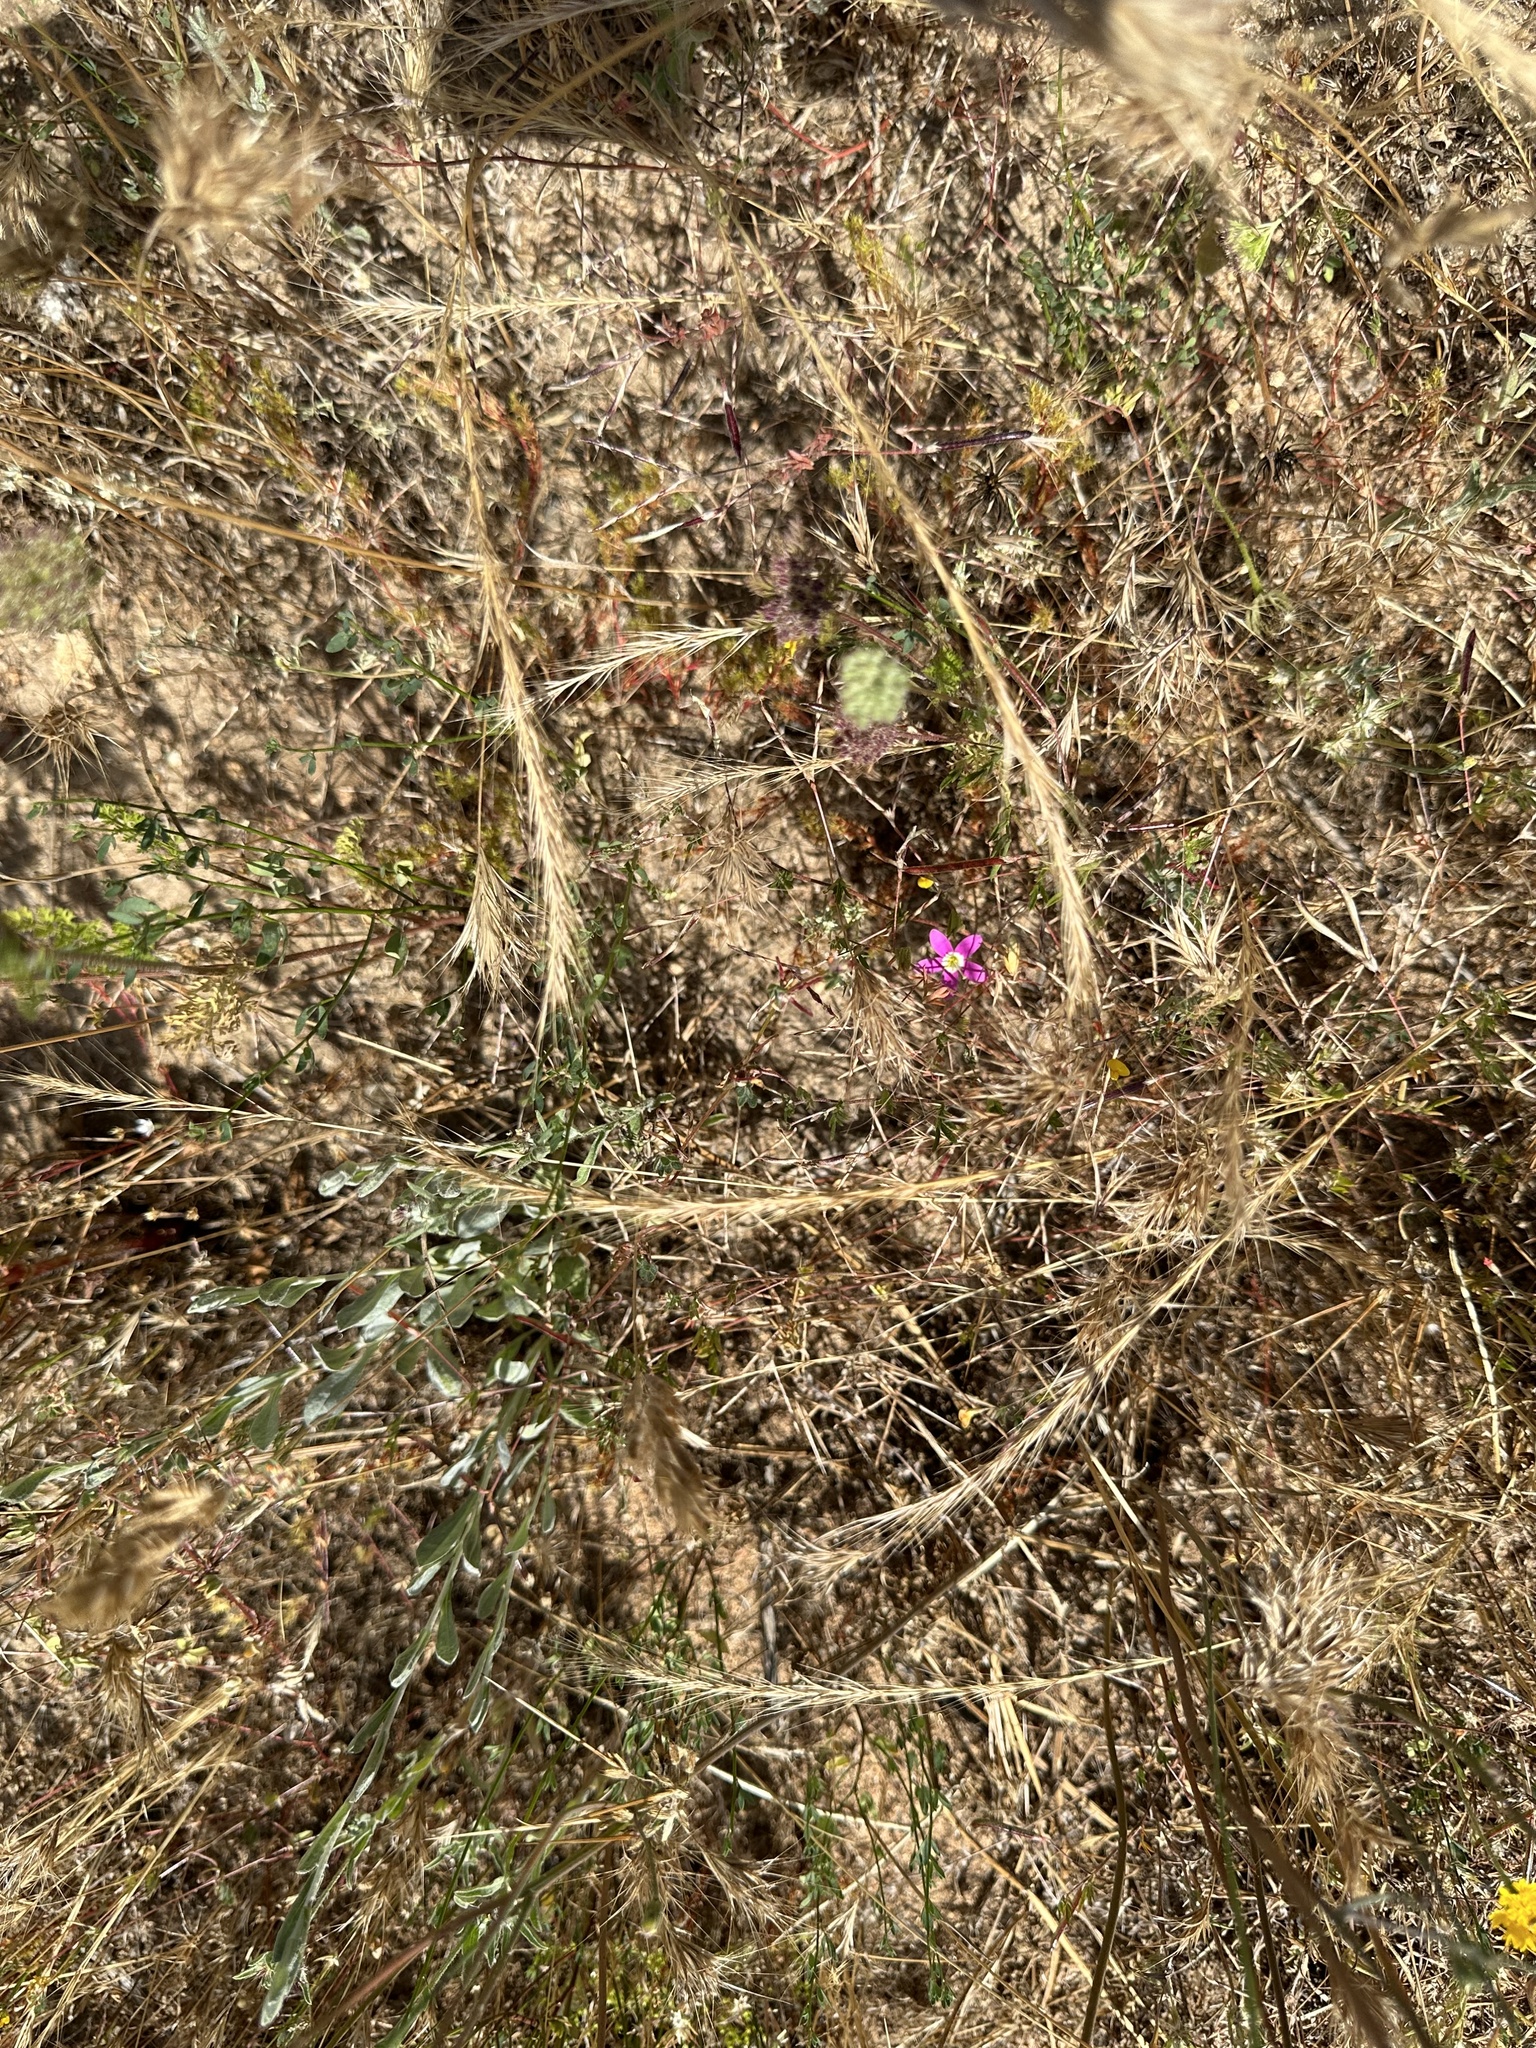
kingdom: Plantae
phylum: Tracheophyta
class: Magnoliopsida
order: Gentianales
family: Gentianaceae
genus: Zeltnera
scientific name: Zeltnera venusta
